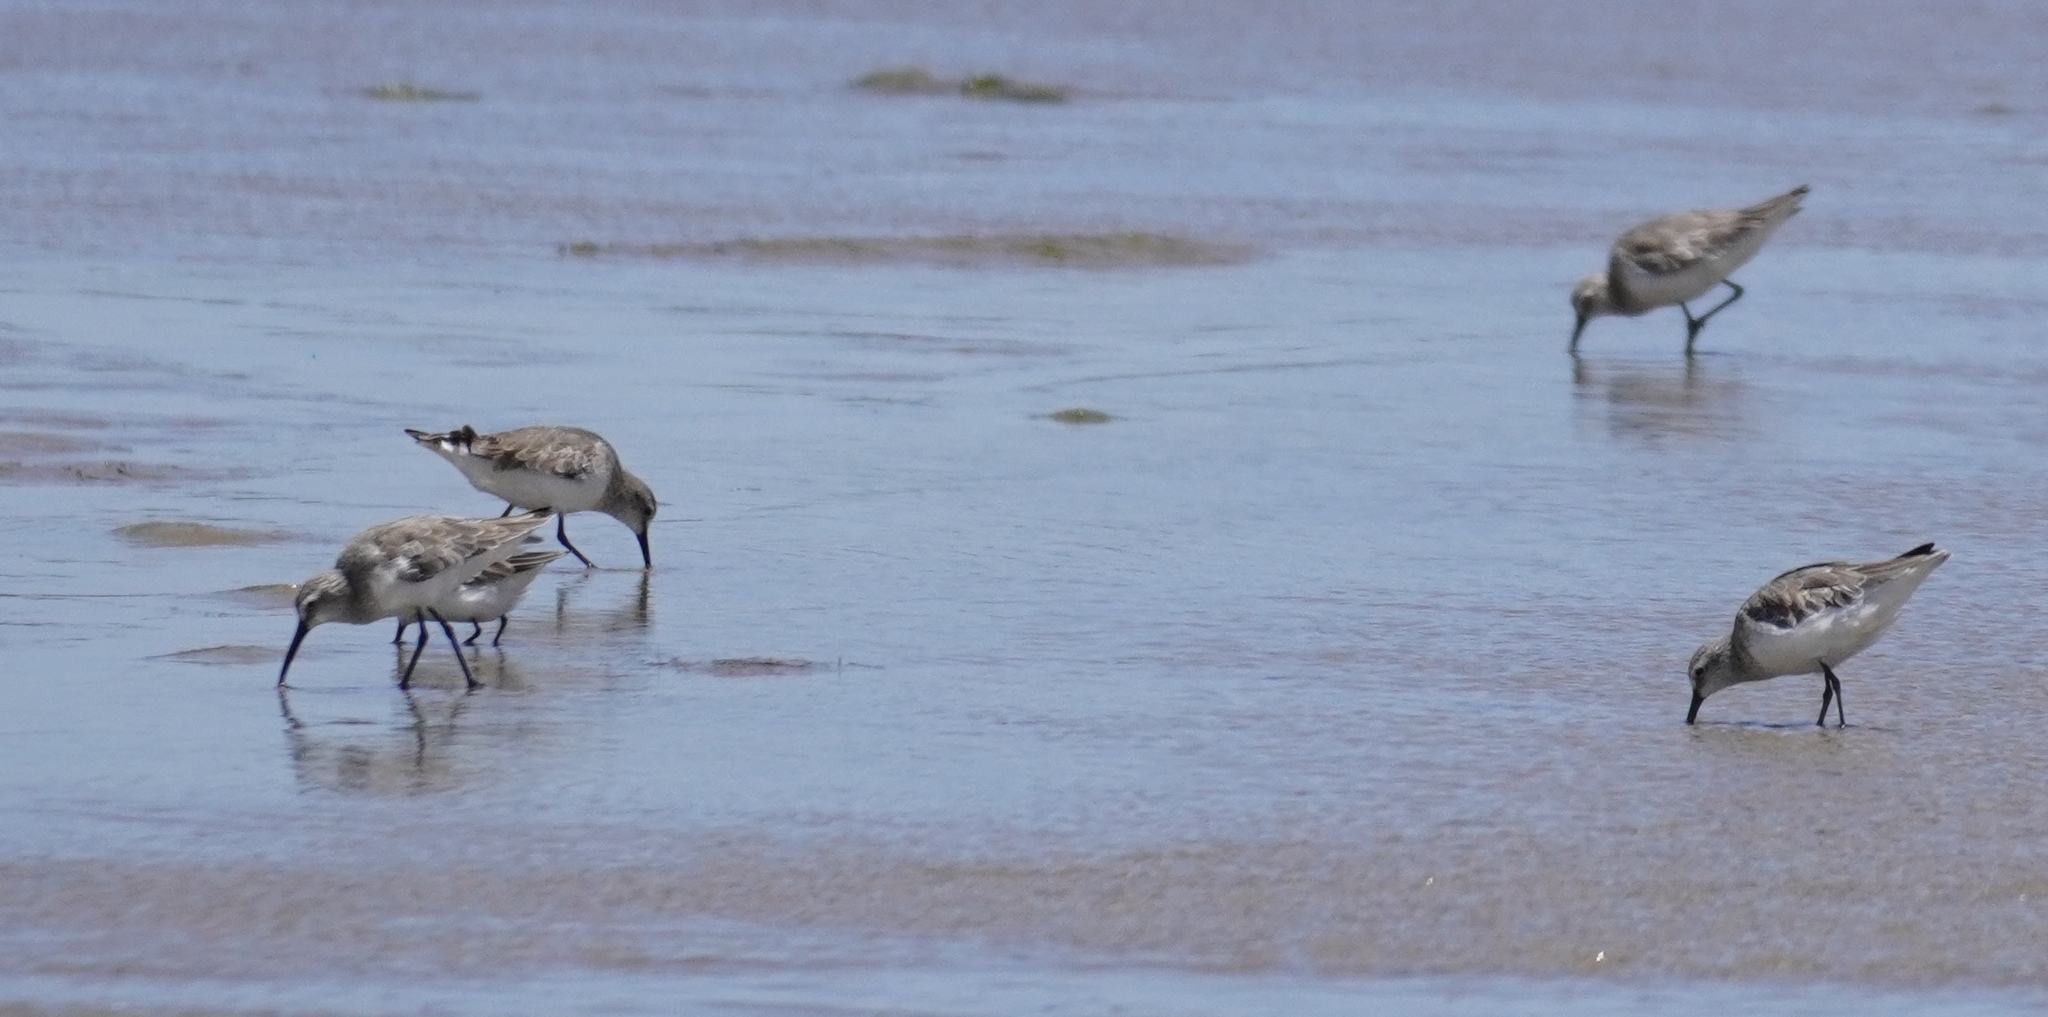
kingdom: Animalia
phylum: Chordata
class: Aves
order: Charadriiformes
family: Scolopacidae
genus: Calidris
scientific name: Calidris ferruginea
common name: Curlew sandpiper
